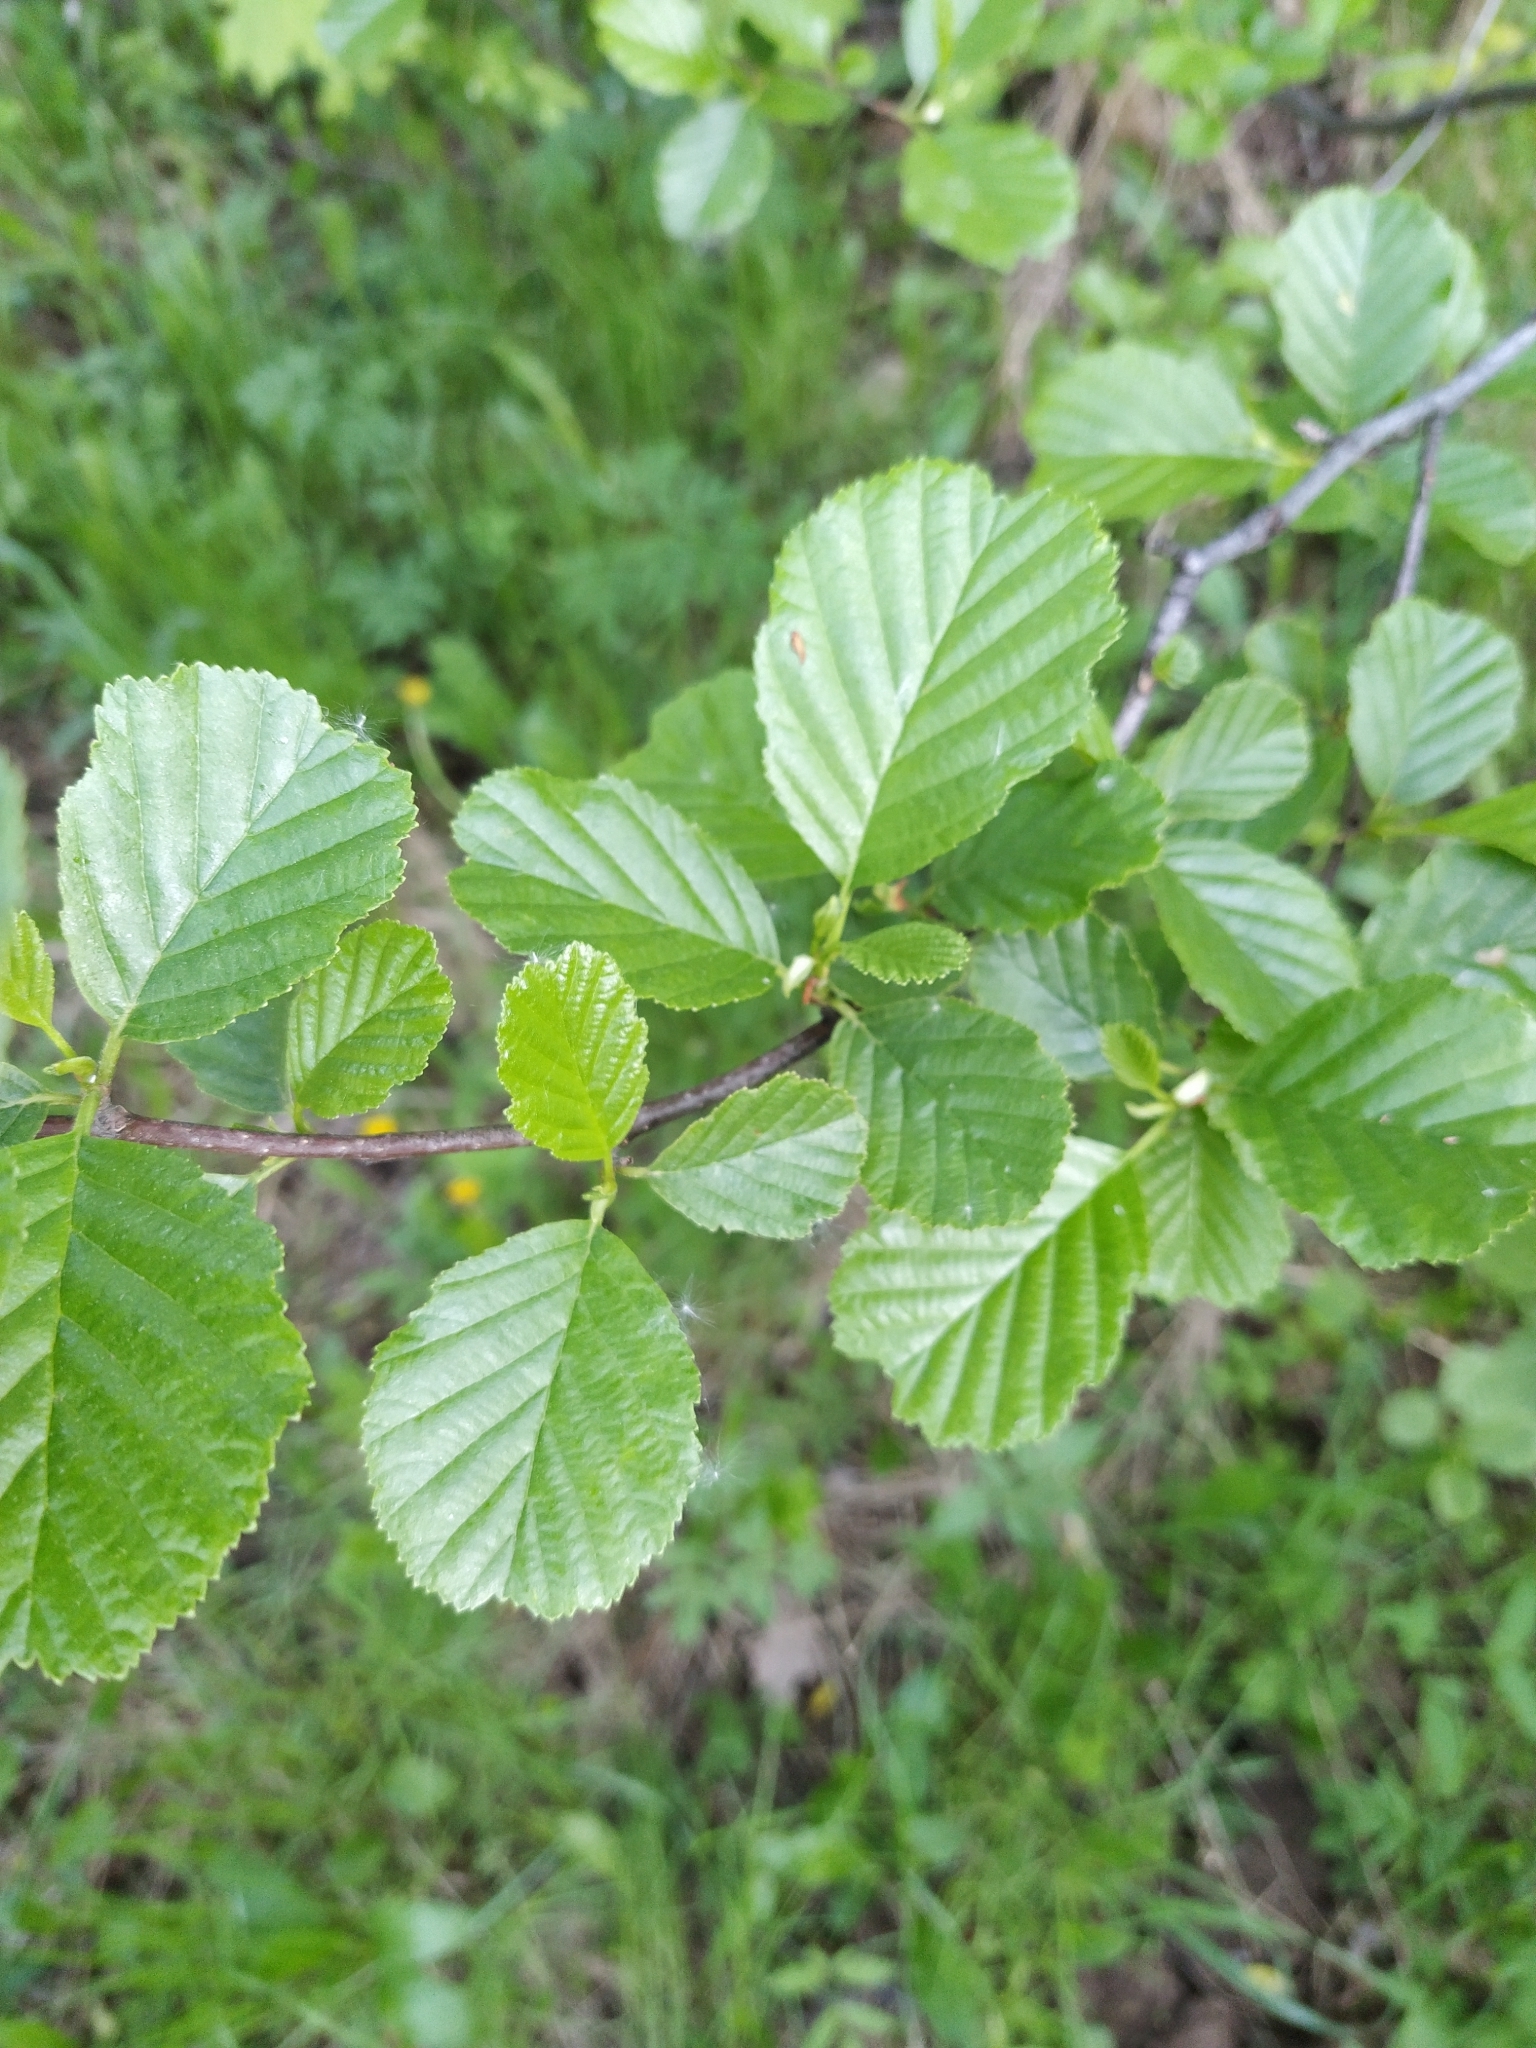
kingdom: Plantae
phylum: Tracheophyta
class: Magnoliopsida
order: Fagales
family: Betulaceae
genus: Alnus
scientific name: Alnus glutinosa
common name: Black alder
